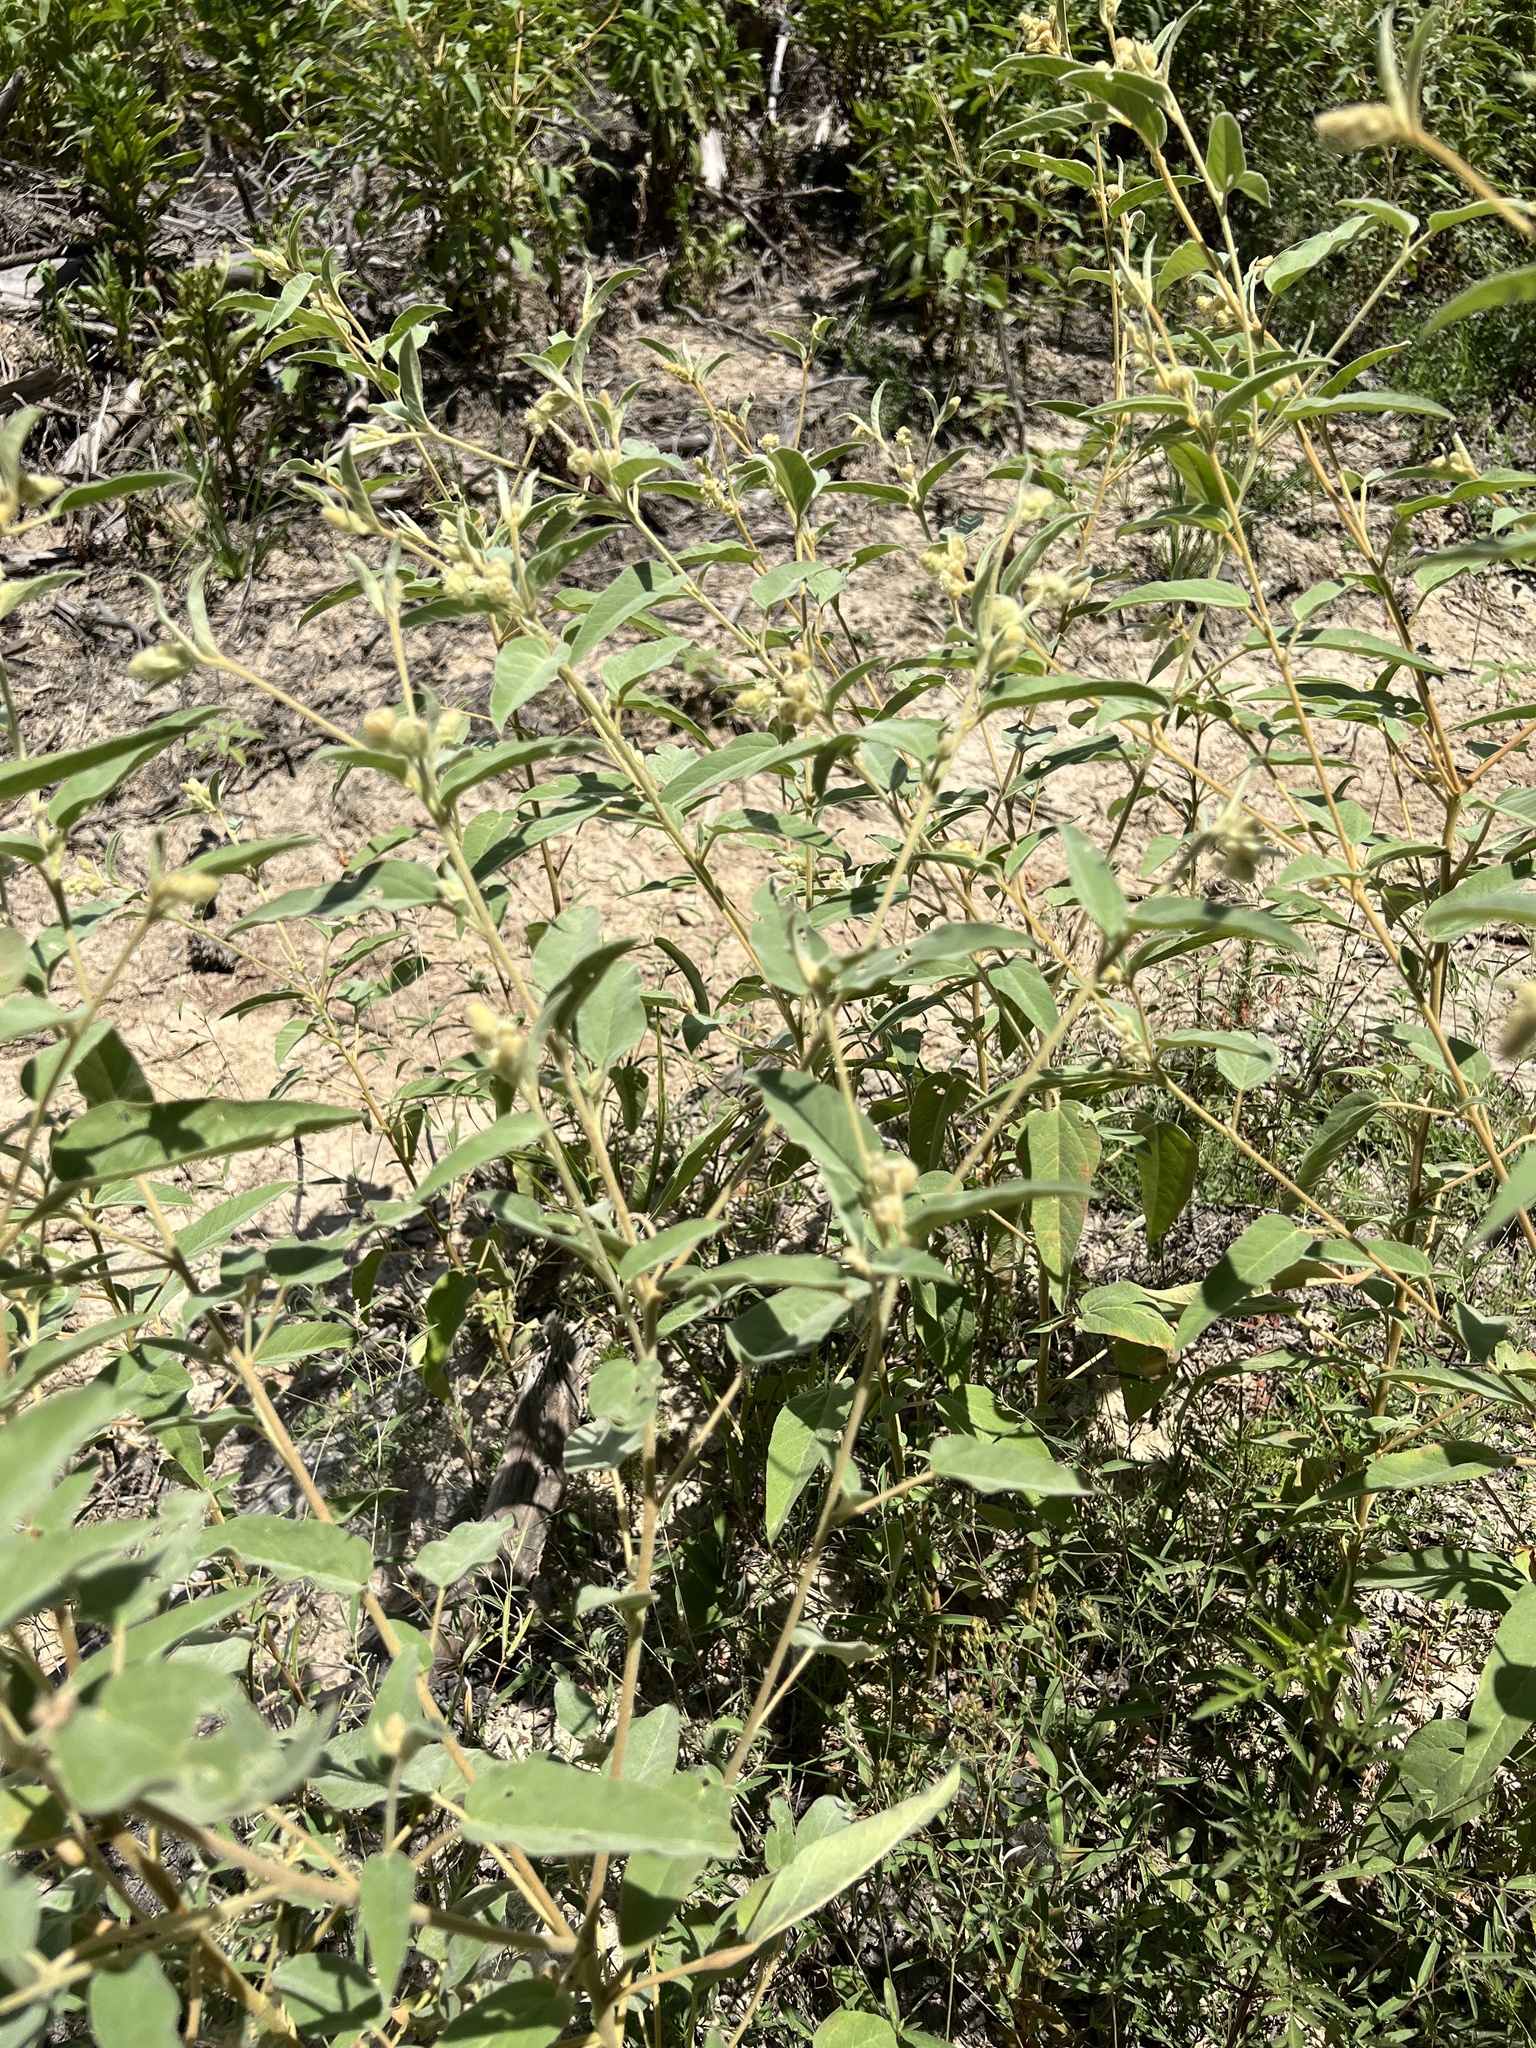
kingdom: Plantae
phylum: Tracheophyta
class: Magnoliopsida
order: Malpighiales
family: Euphorbiaceae
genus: Croton
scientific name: Croton lindheimeri
